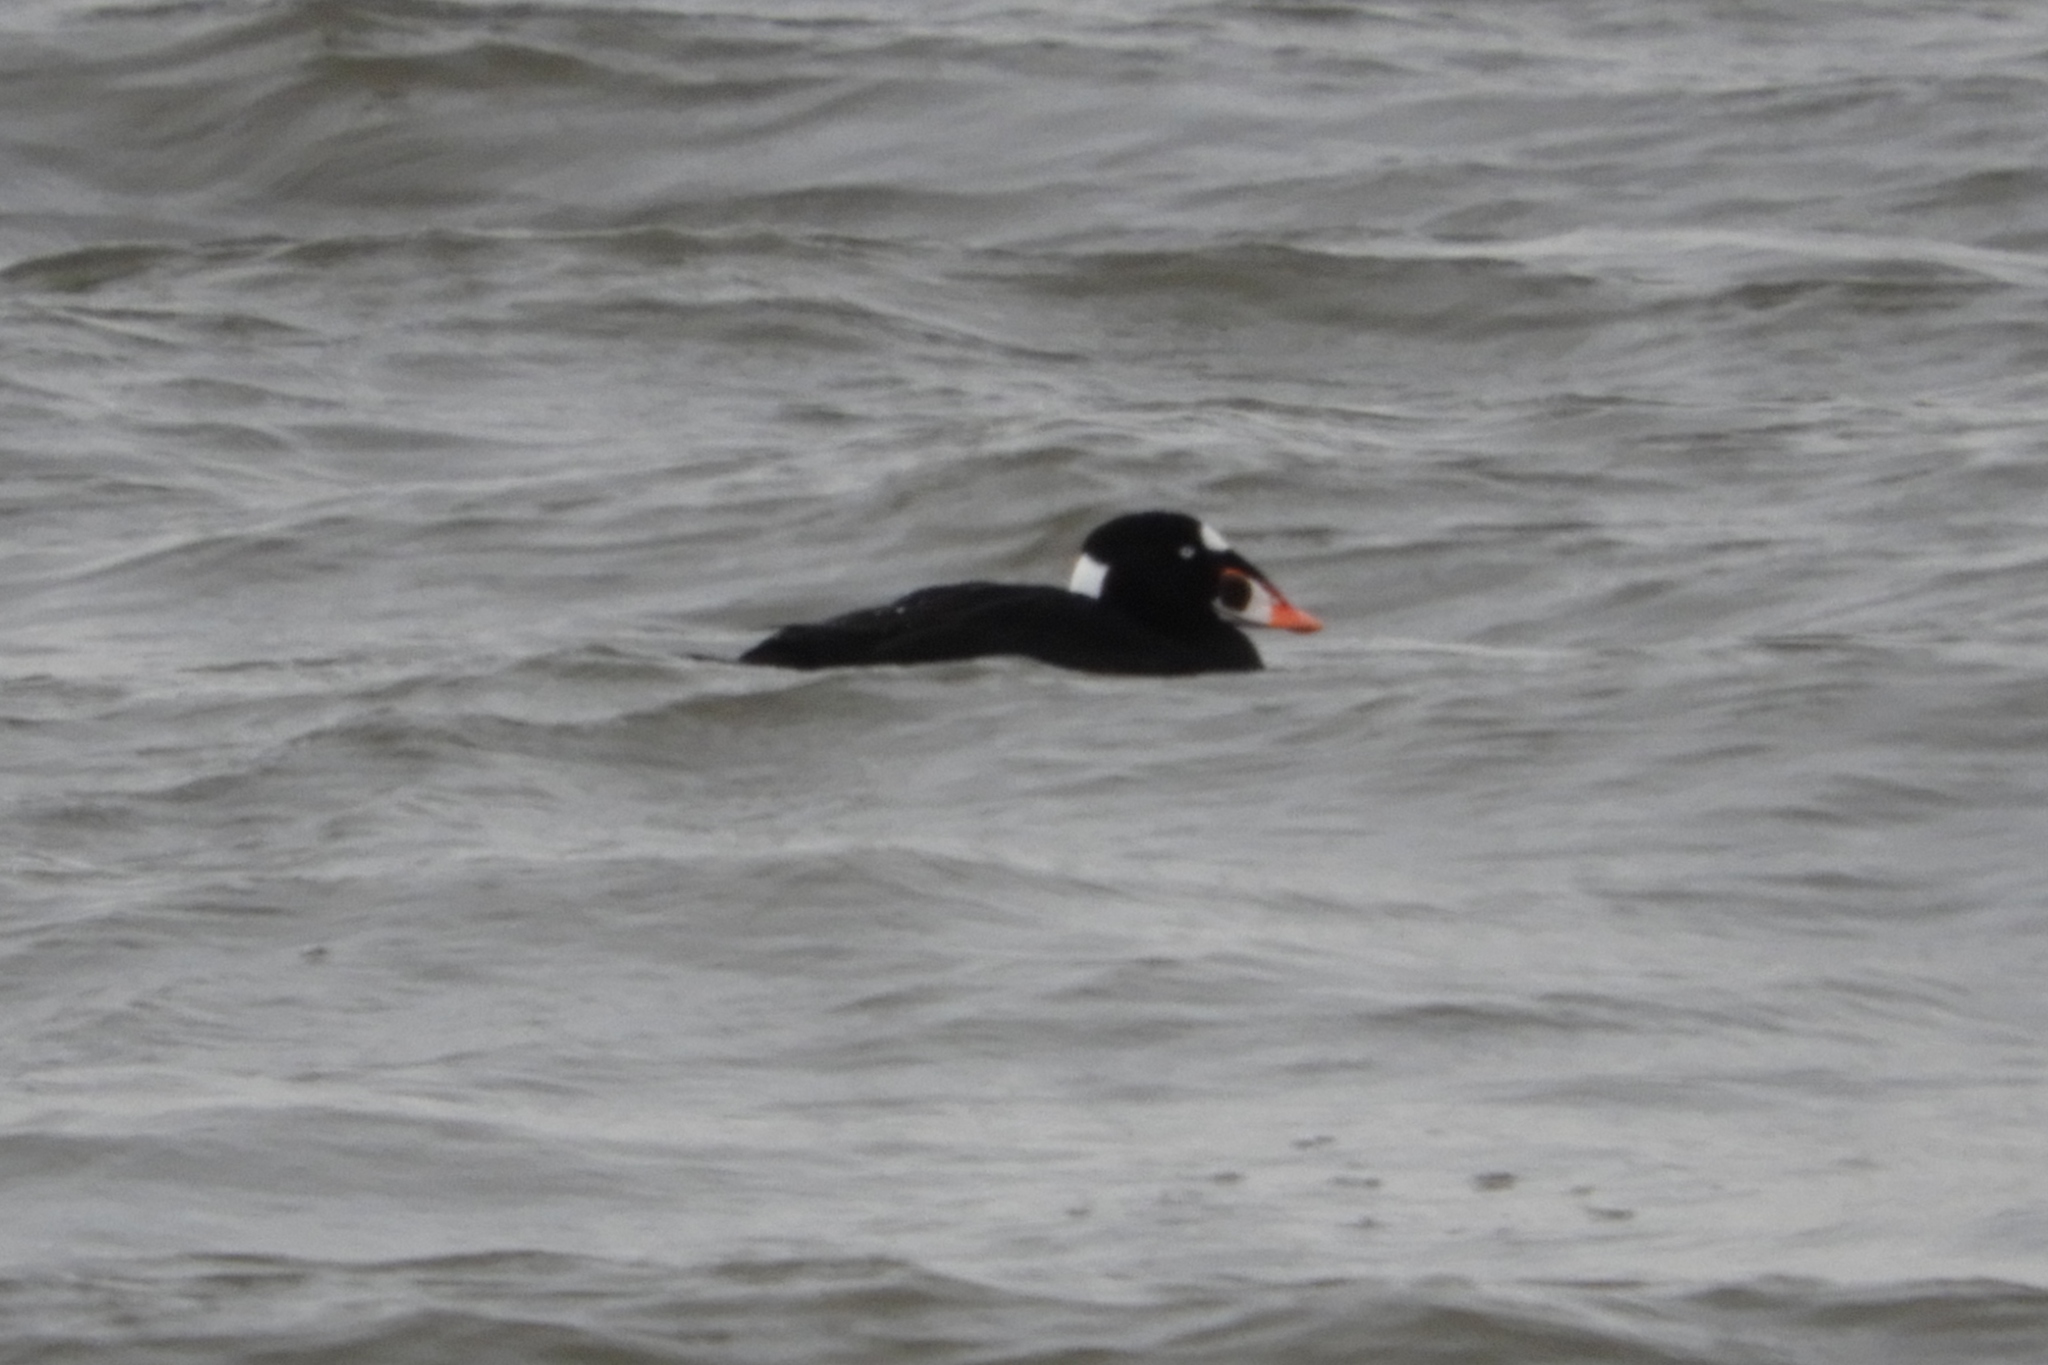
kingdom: Animalia
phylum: Chordata
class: Aves
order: Anseriformes
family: Anatidae
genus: Melanitta
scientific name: Melanitta perspicillata
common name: Surf scoter
